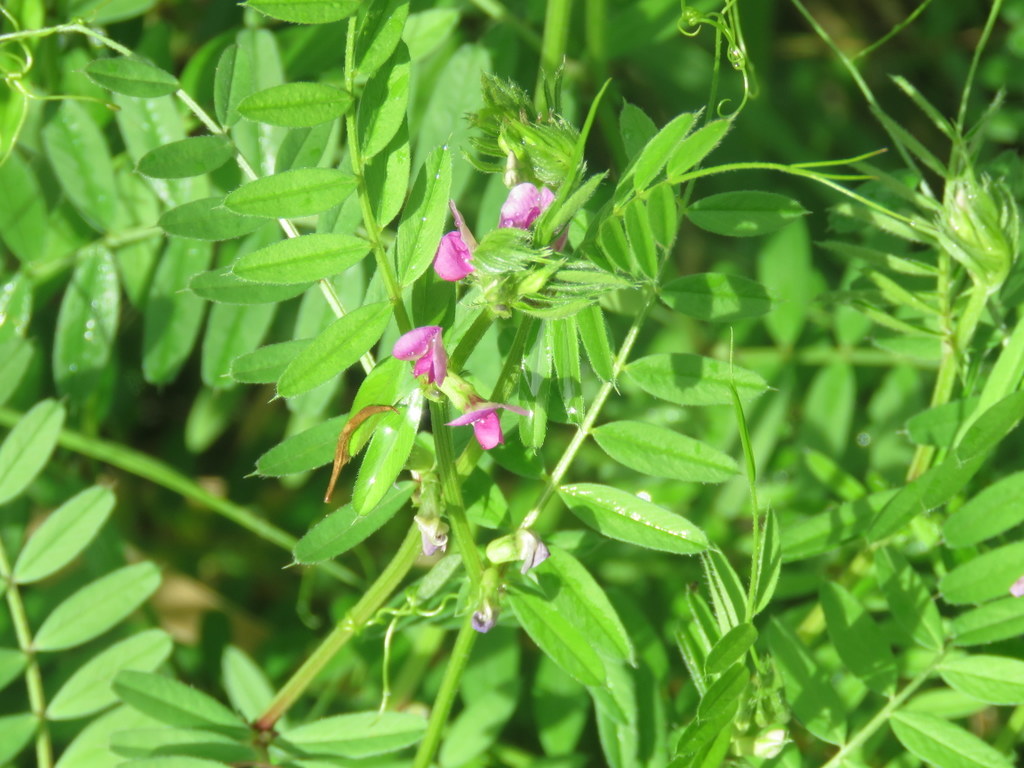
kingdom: Plantae
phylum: Tracheophyta
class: Magnoliopsida
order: Fabales
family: Fabaceae
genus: Vicia
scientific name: Vicia sativa
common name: Garden vetch
